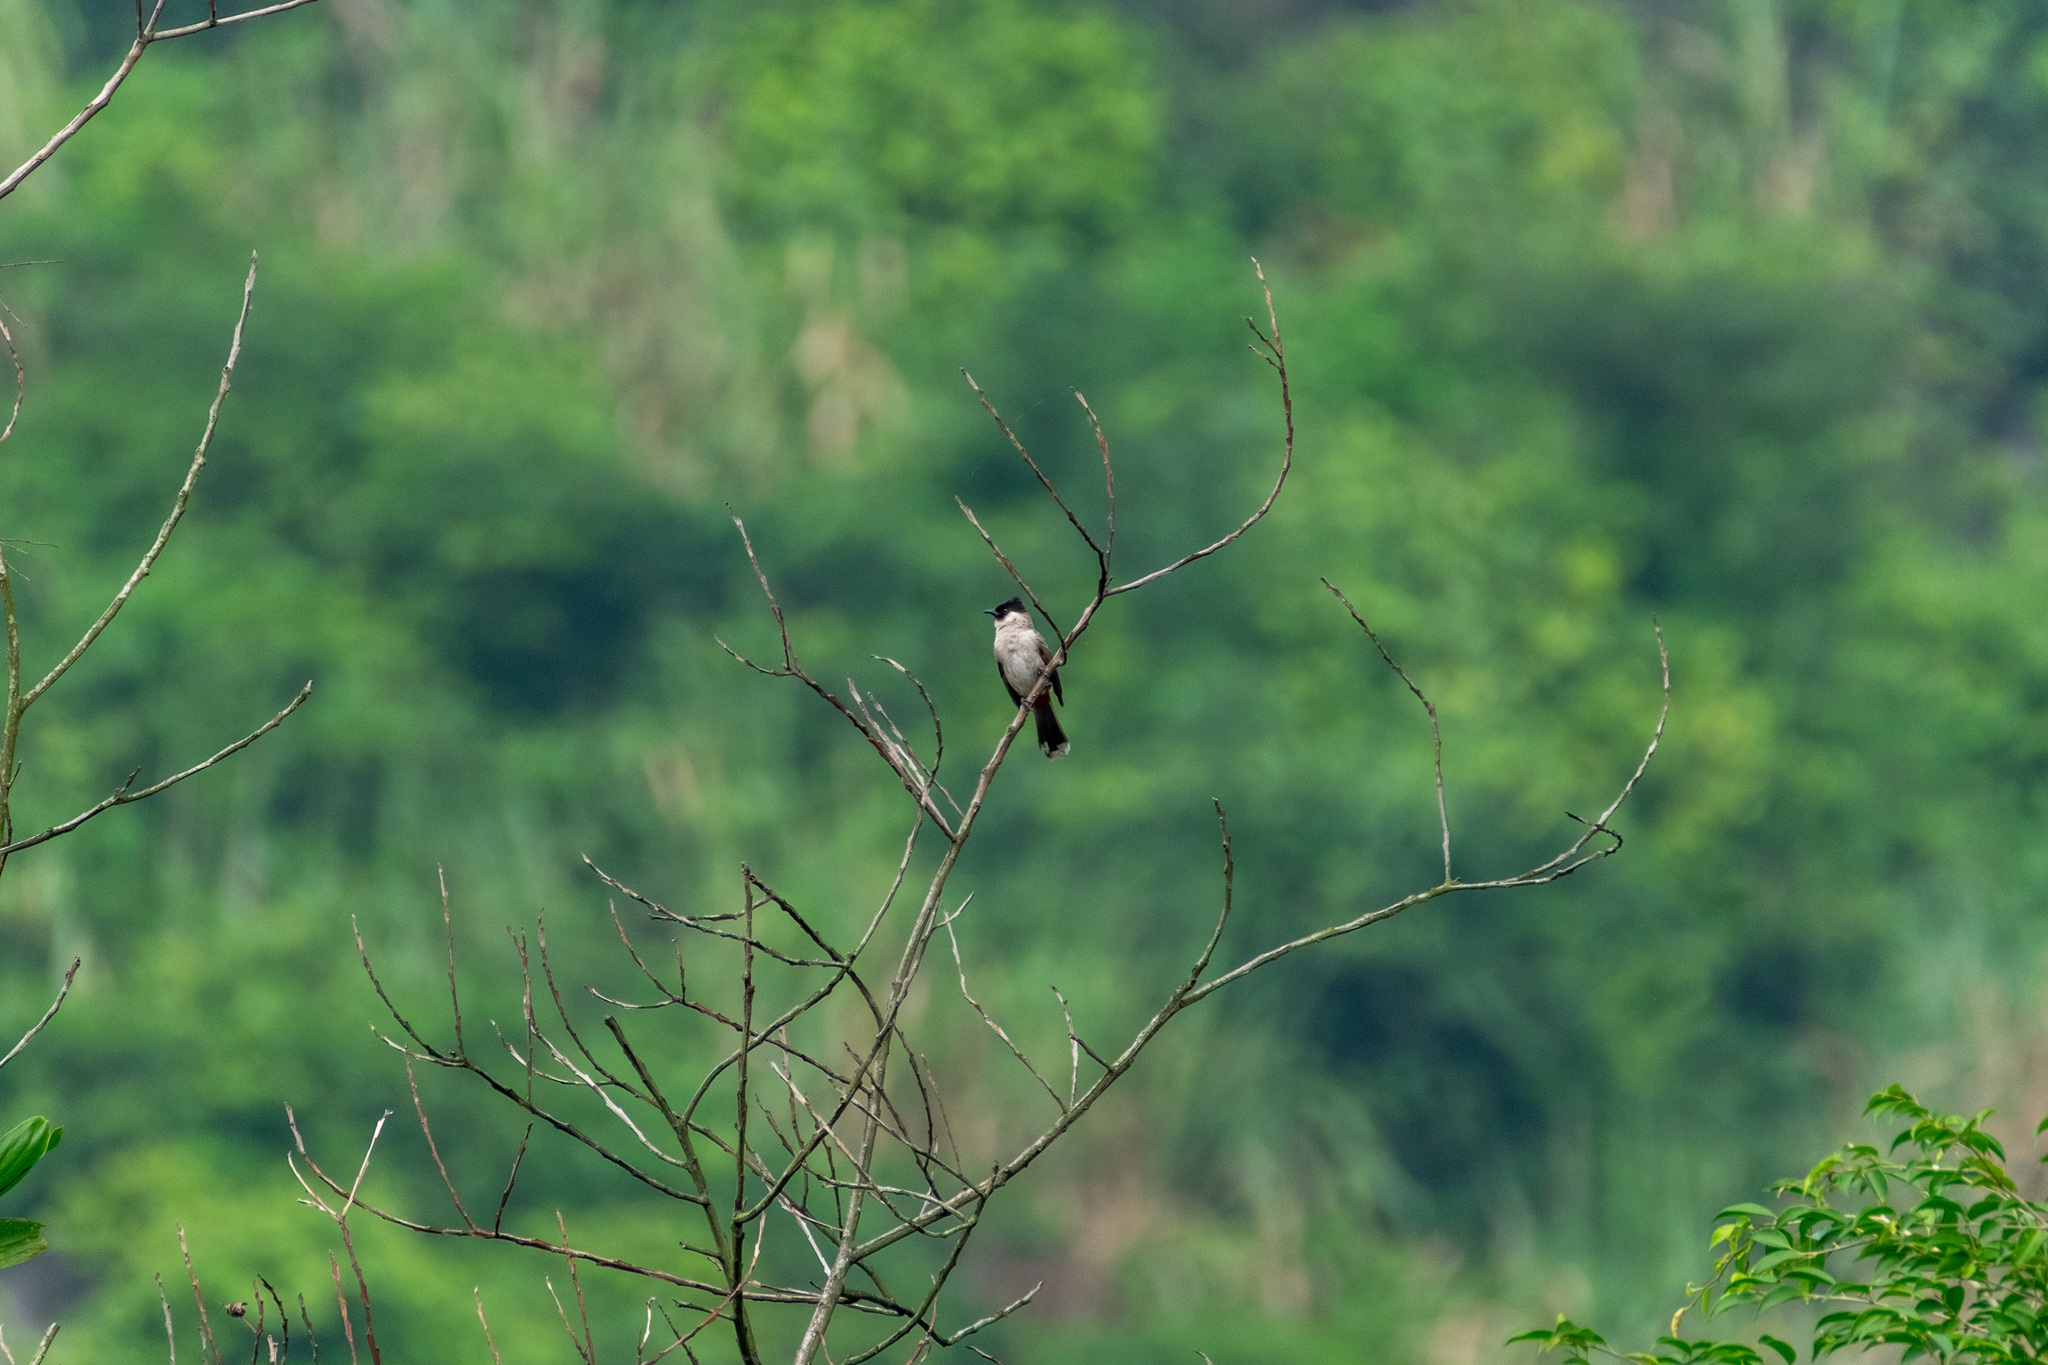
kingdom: Animalia
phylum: Chordata
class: Aves
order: Passeriformes
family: Pycnonotidae
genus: Pycnonotus
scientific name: Pycnonotus aurigaster
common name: Sooty-headed bulbul
